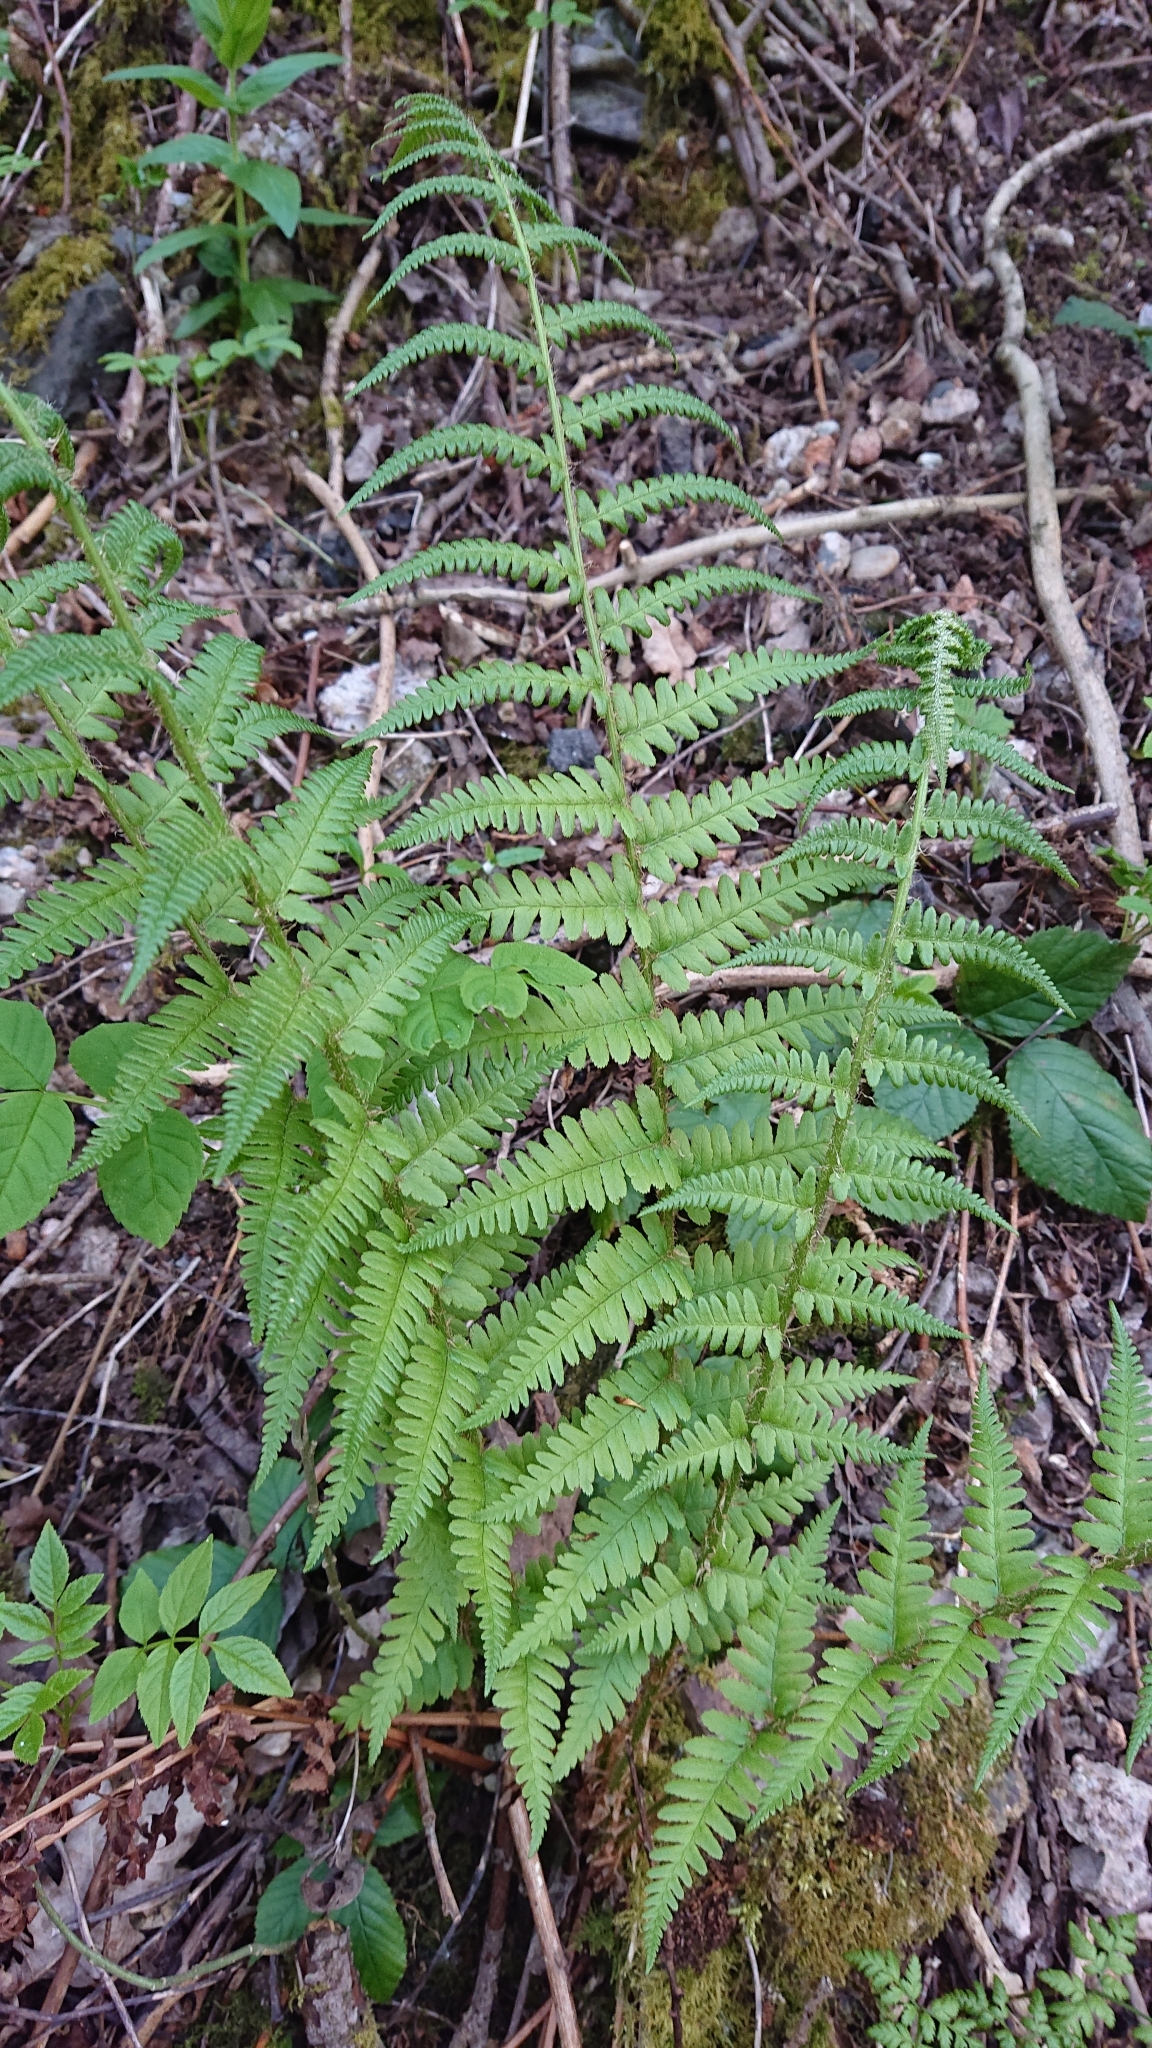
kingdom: Plantae
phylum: Tracheophyta
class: Polypodiopsida
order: Polypodiales
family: Dryopteridaceae
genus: Dryopteris
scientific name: Dryopteris filix-mas
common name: Male fern
